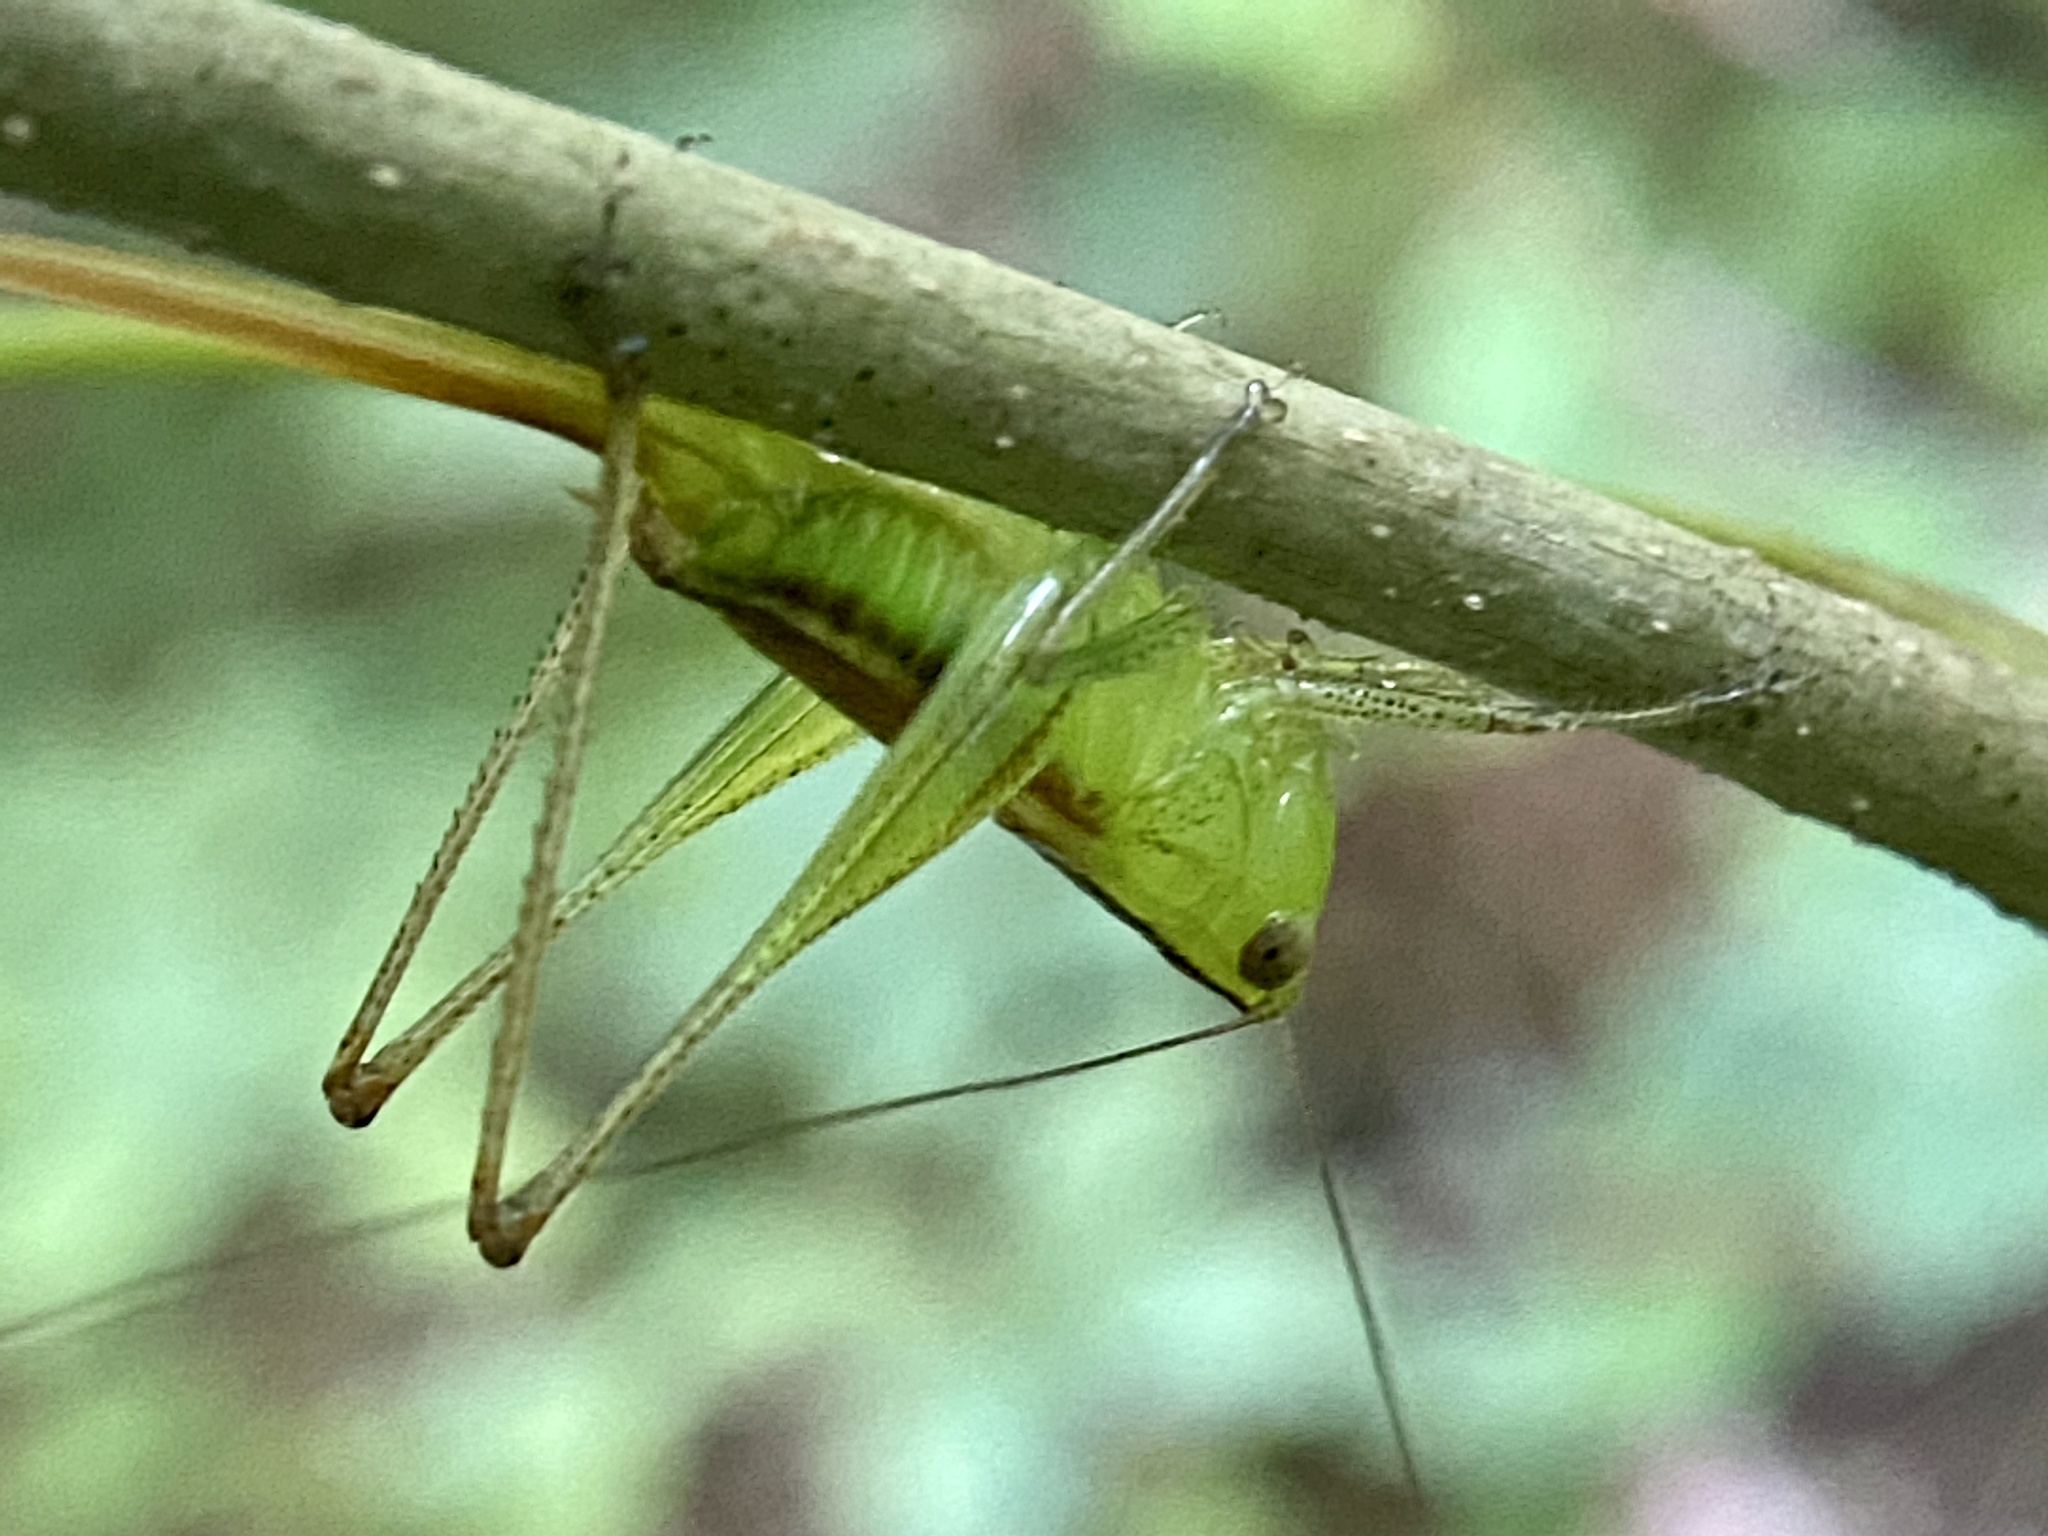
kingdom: Animalia
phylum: Arthropoda
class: Insecta
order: Orthoptera
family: Tettigoniidae
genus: Conocephalus
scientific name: Conocephalus brevipennis
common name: Short-winged meadow katydid
